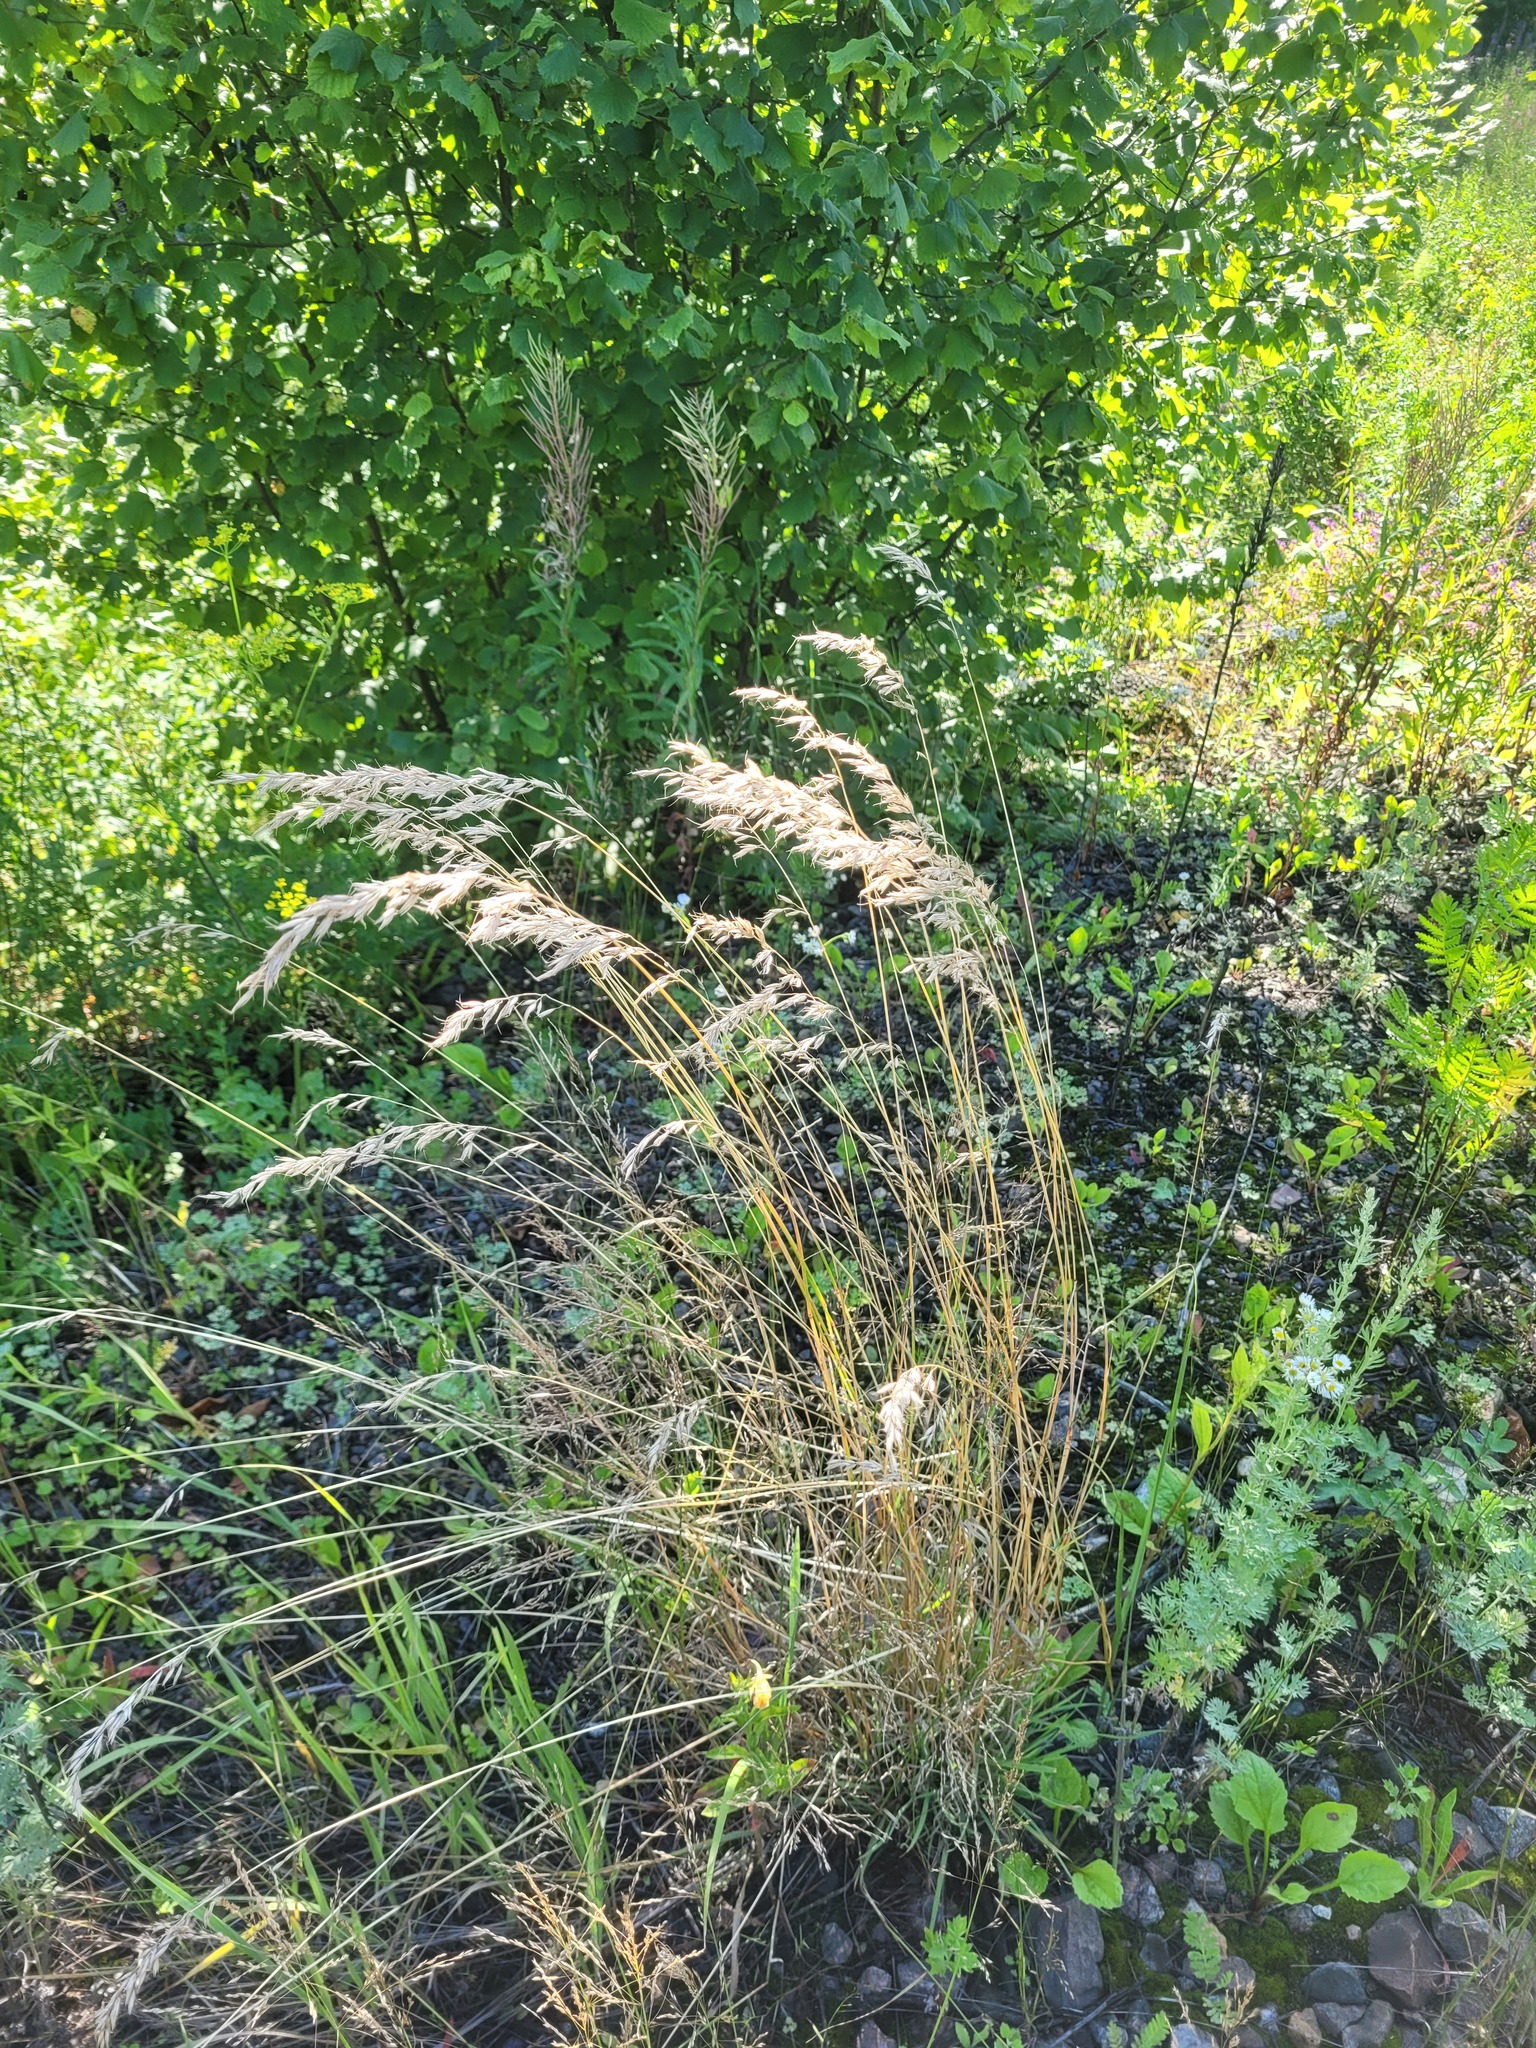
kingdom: Plantae
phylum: Tracheophyta
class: Liliopsida
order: Poales
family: Poaceae
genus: Arrhenatherum
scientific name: Arrhenatherum elatius
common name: Tall oatgrass
